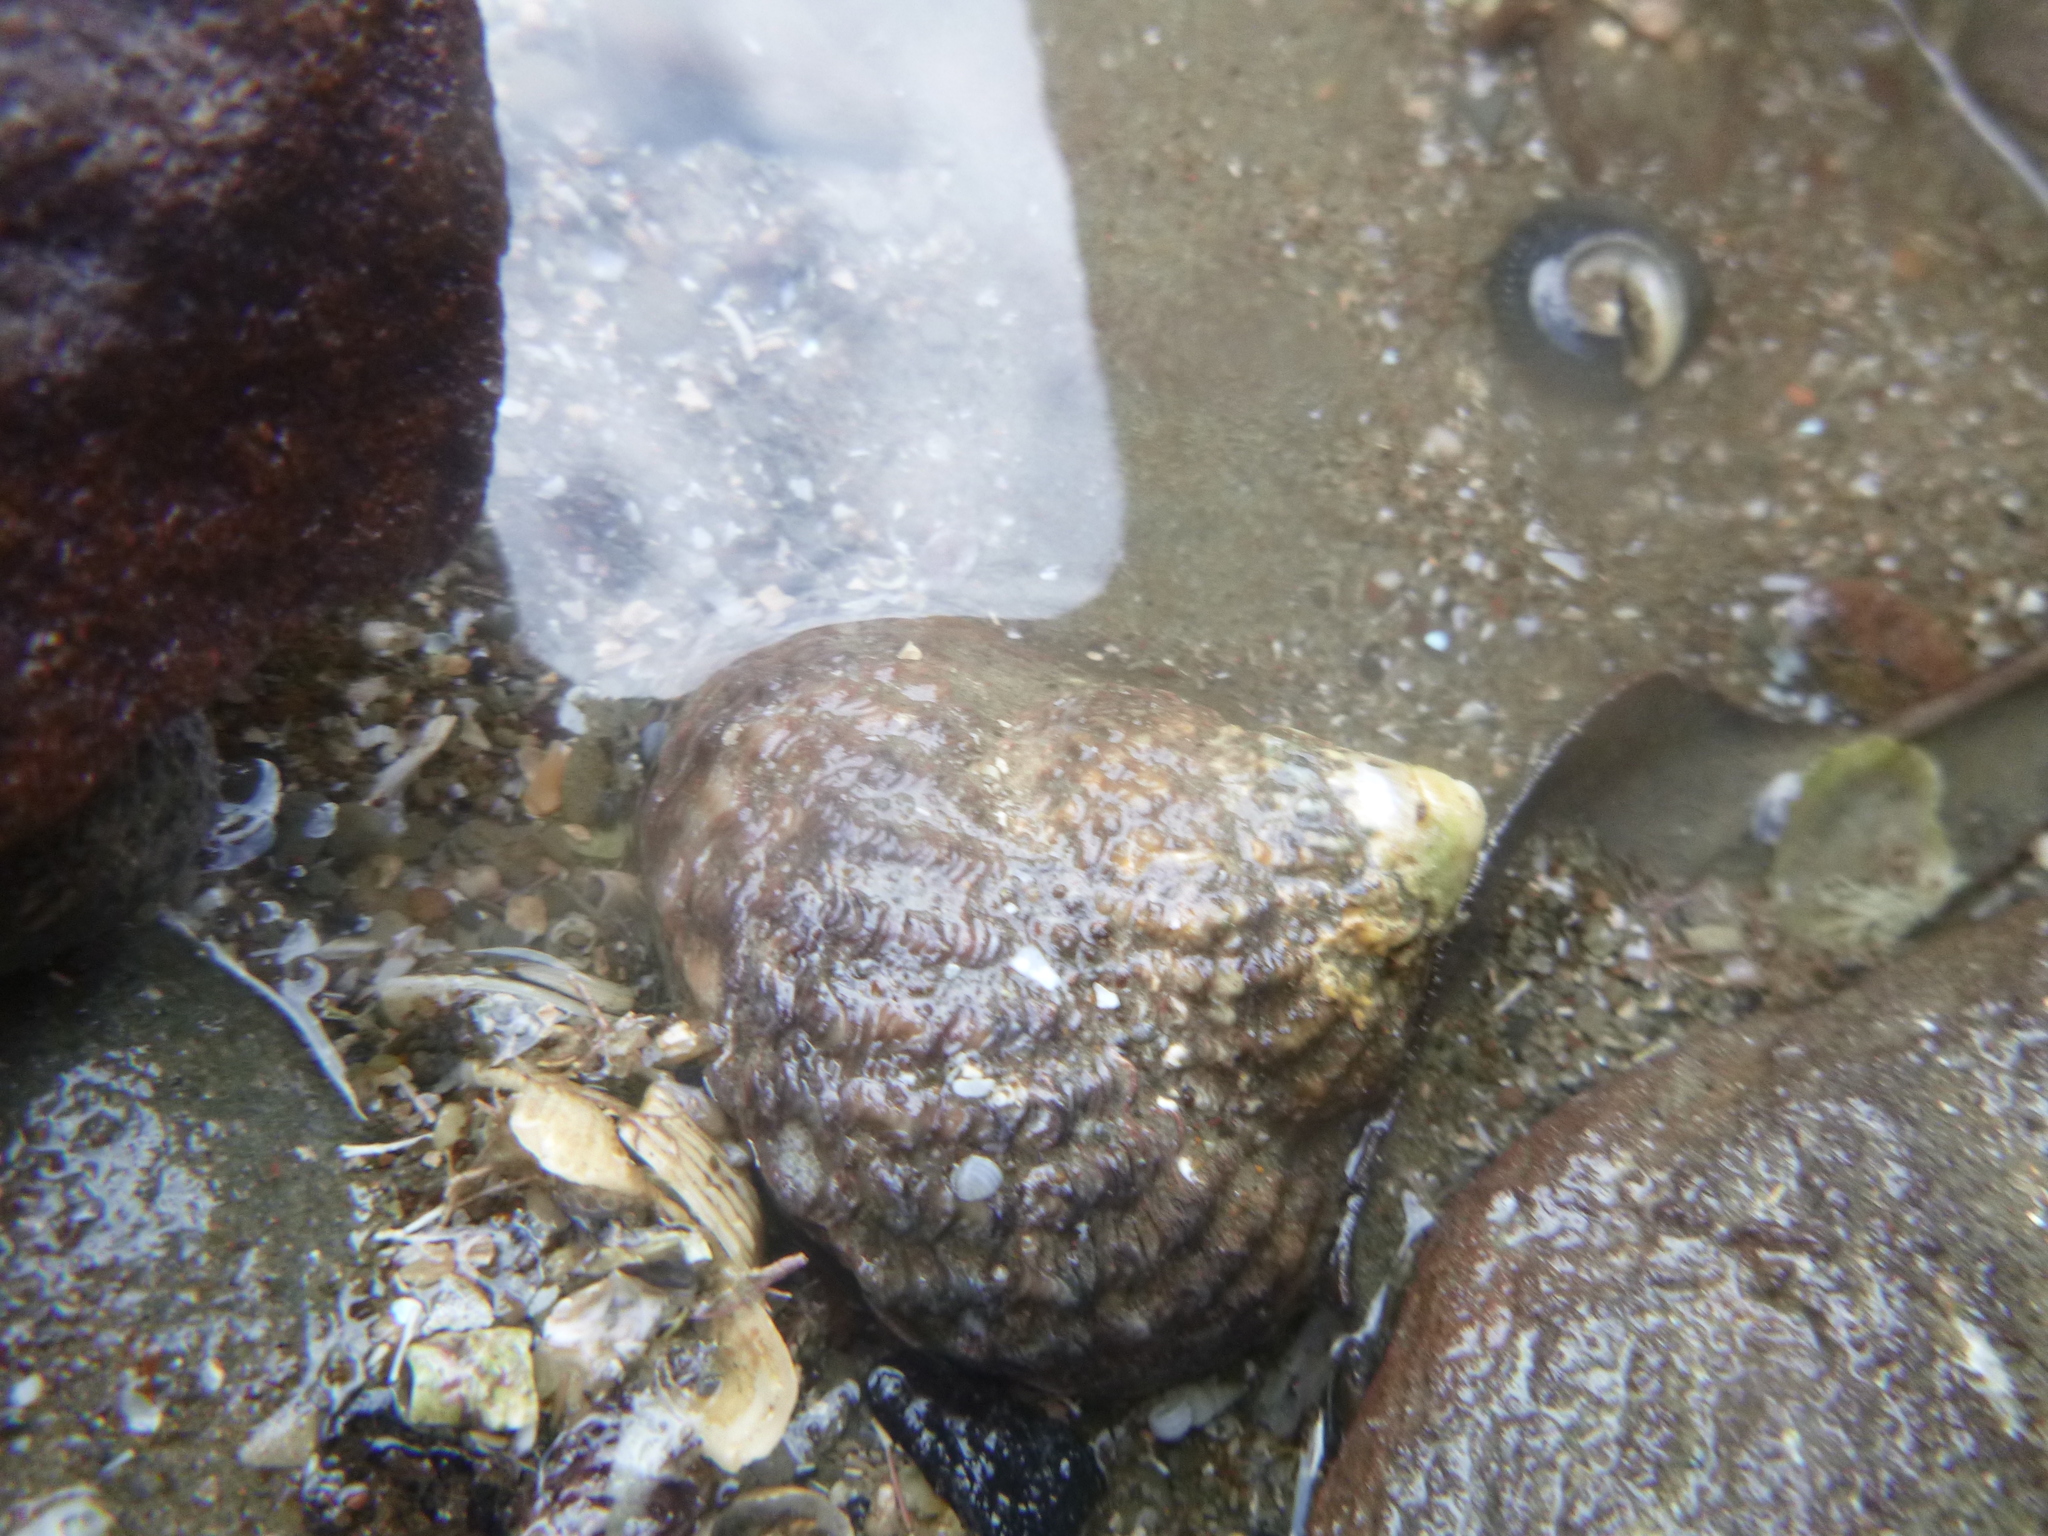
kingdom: Animalia
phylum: Mollusca
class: Gastropoda
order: Trochida
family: Turbinidae
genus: Cookia
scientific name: Cookia sulcata
